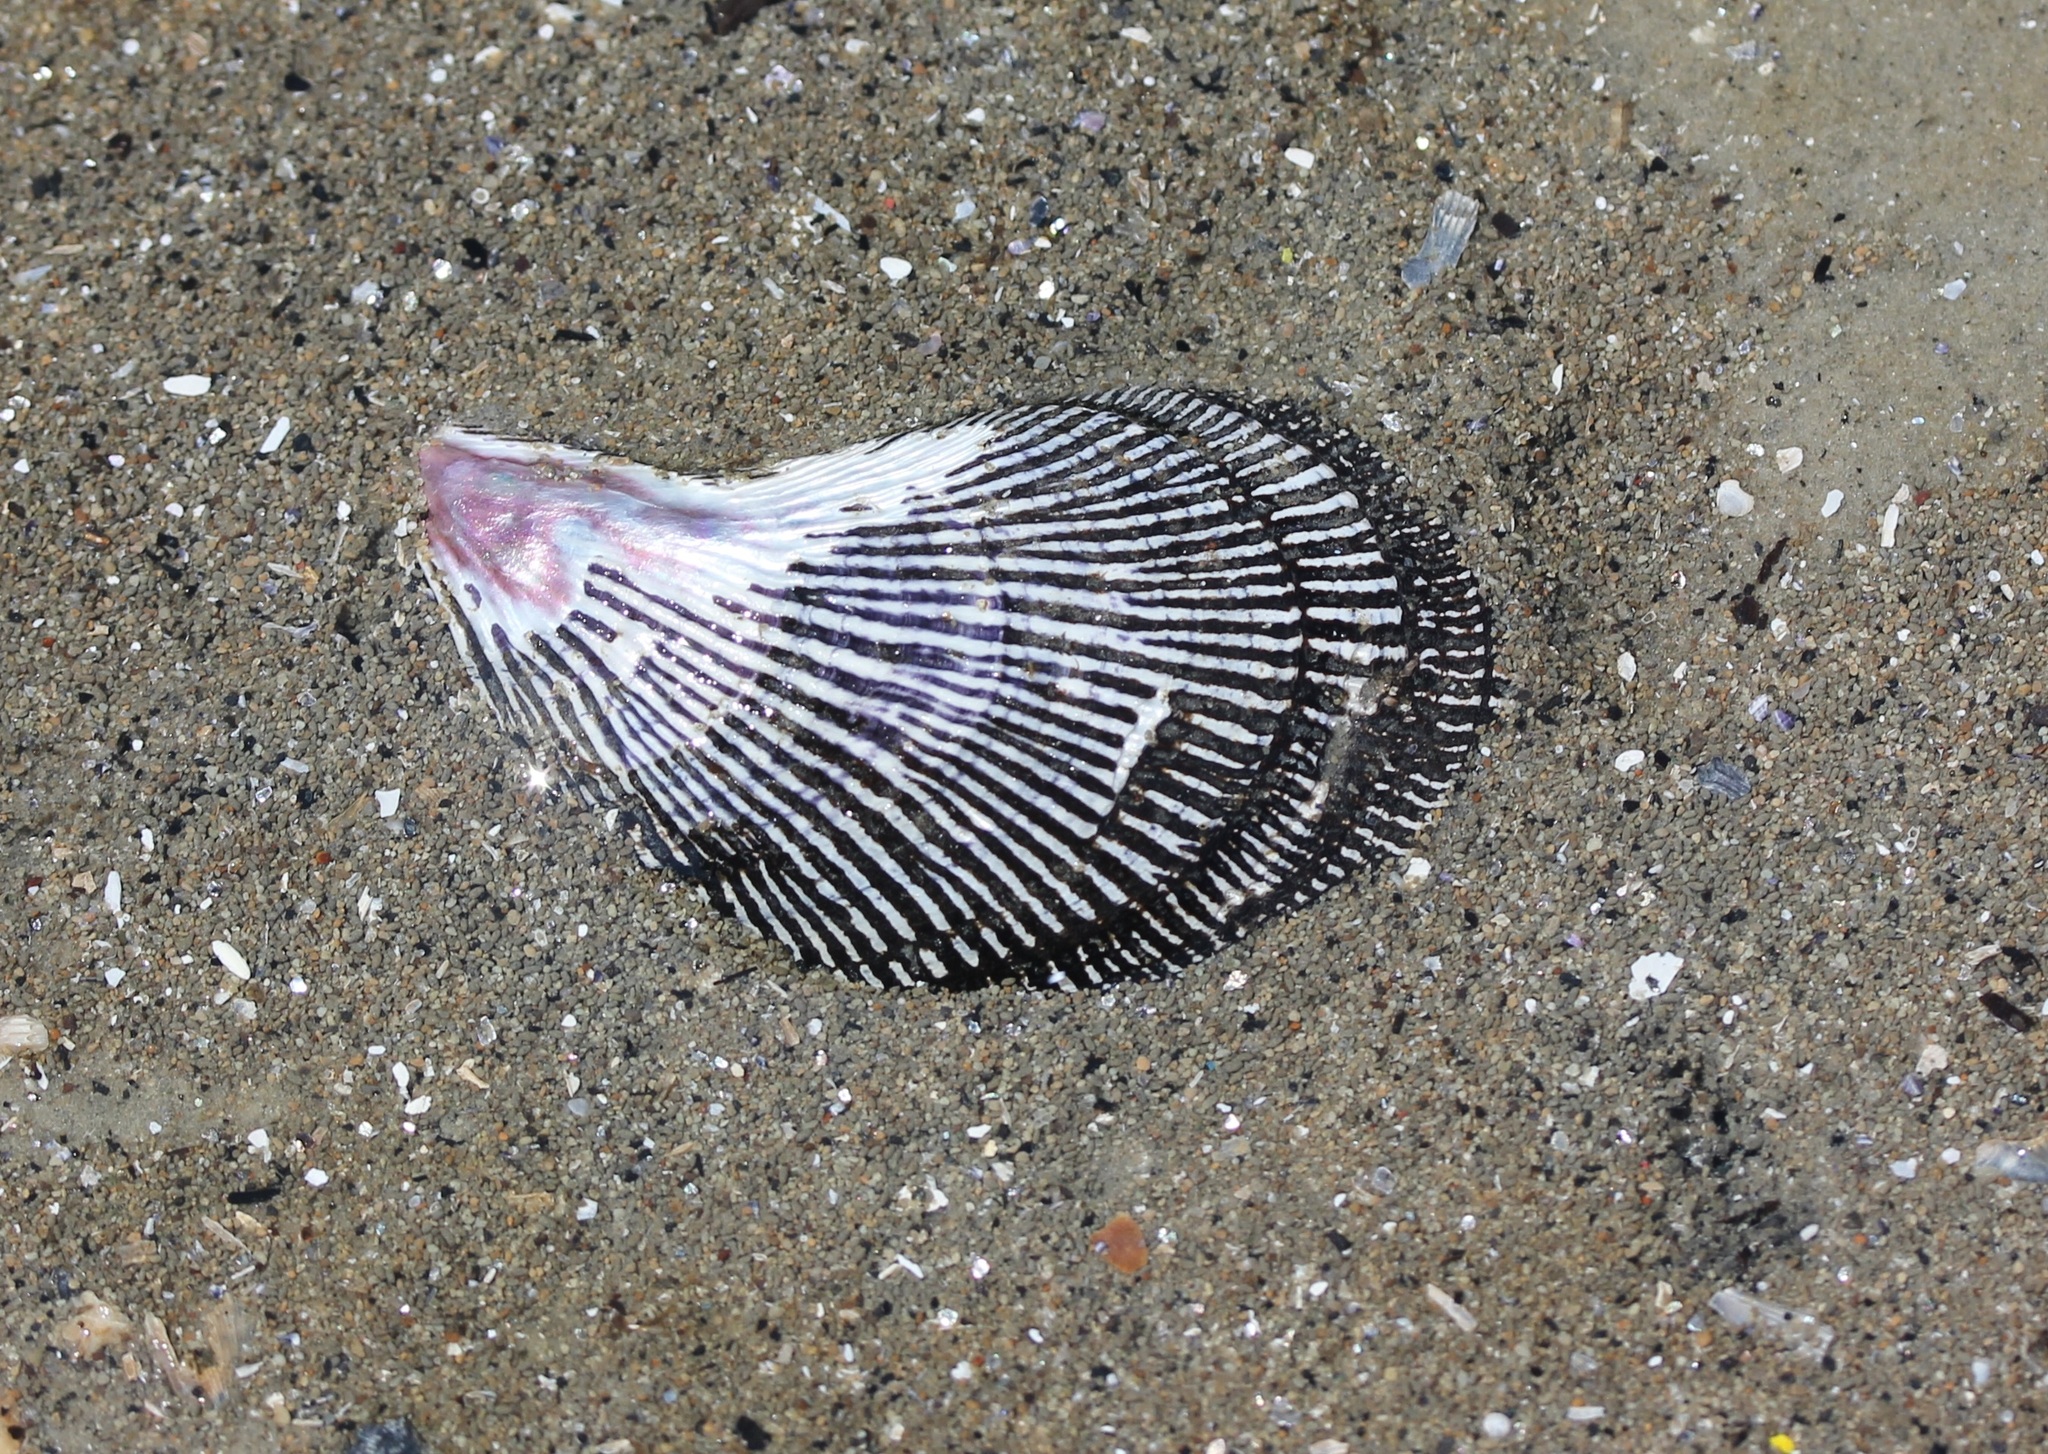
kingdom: Animalia
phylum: Mollusca
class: Bivalvia
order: Mytilida
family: Mytilidae
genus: Ischadium
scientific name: Ischadium recurvum
